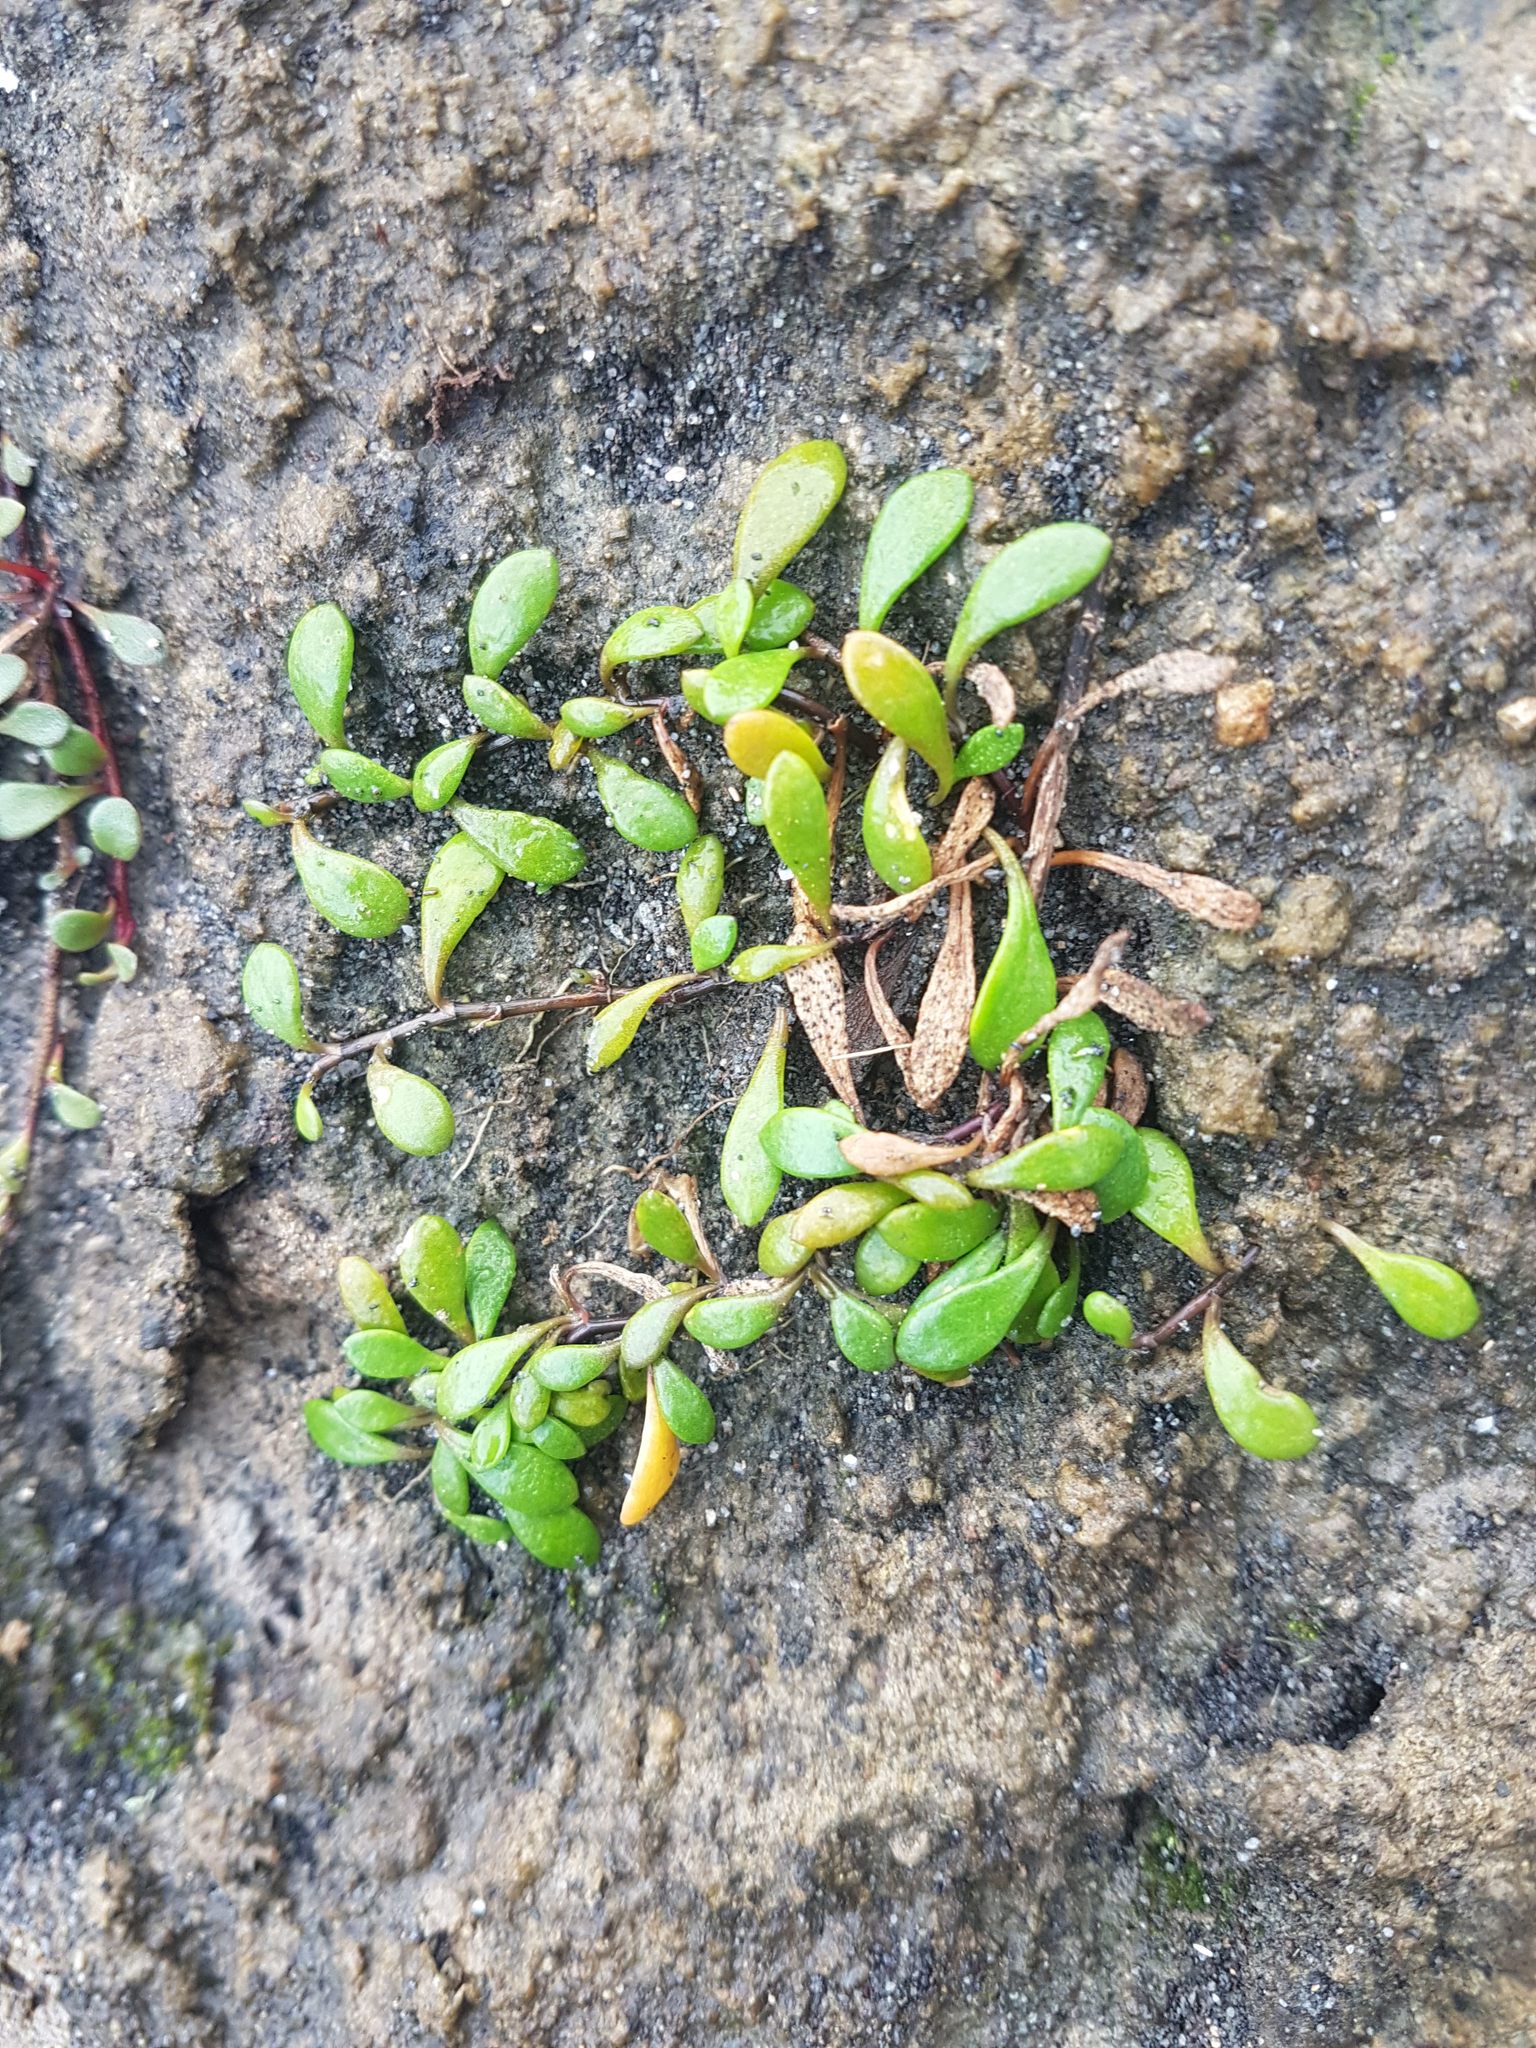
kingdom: Plantae
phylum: Tracheophyta
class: Magnoliopsida
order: Asterales
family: Goodeniaceae
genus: Goodenia
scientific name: Goodenia radicans
